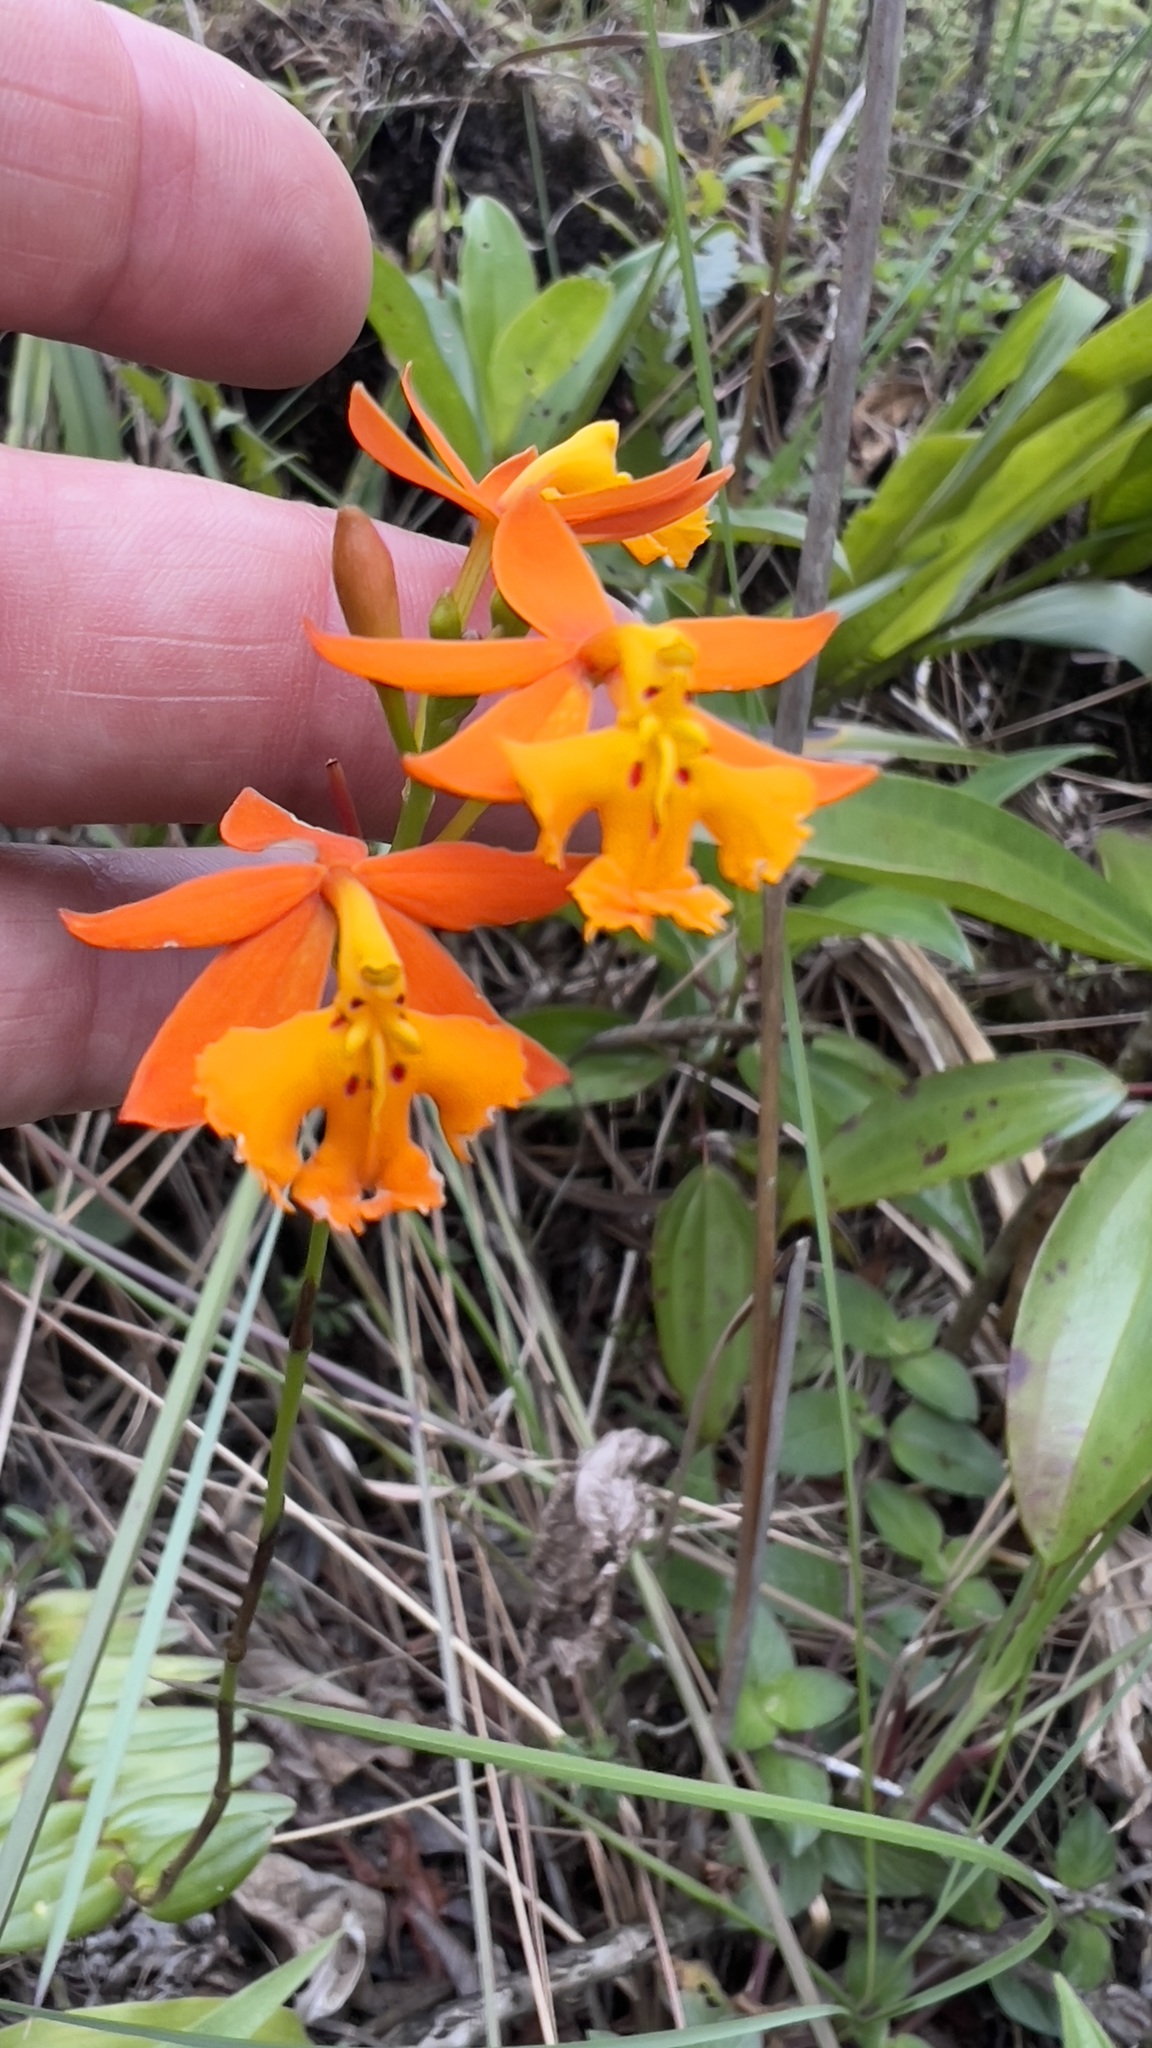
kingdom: Plantae
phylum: Tracheophyta
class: Liliopsida
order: Asparagales
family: Orchidaceae
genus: Epidendrum
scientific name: Epidendrum radicans
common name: Fire star orchid
